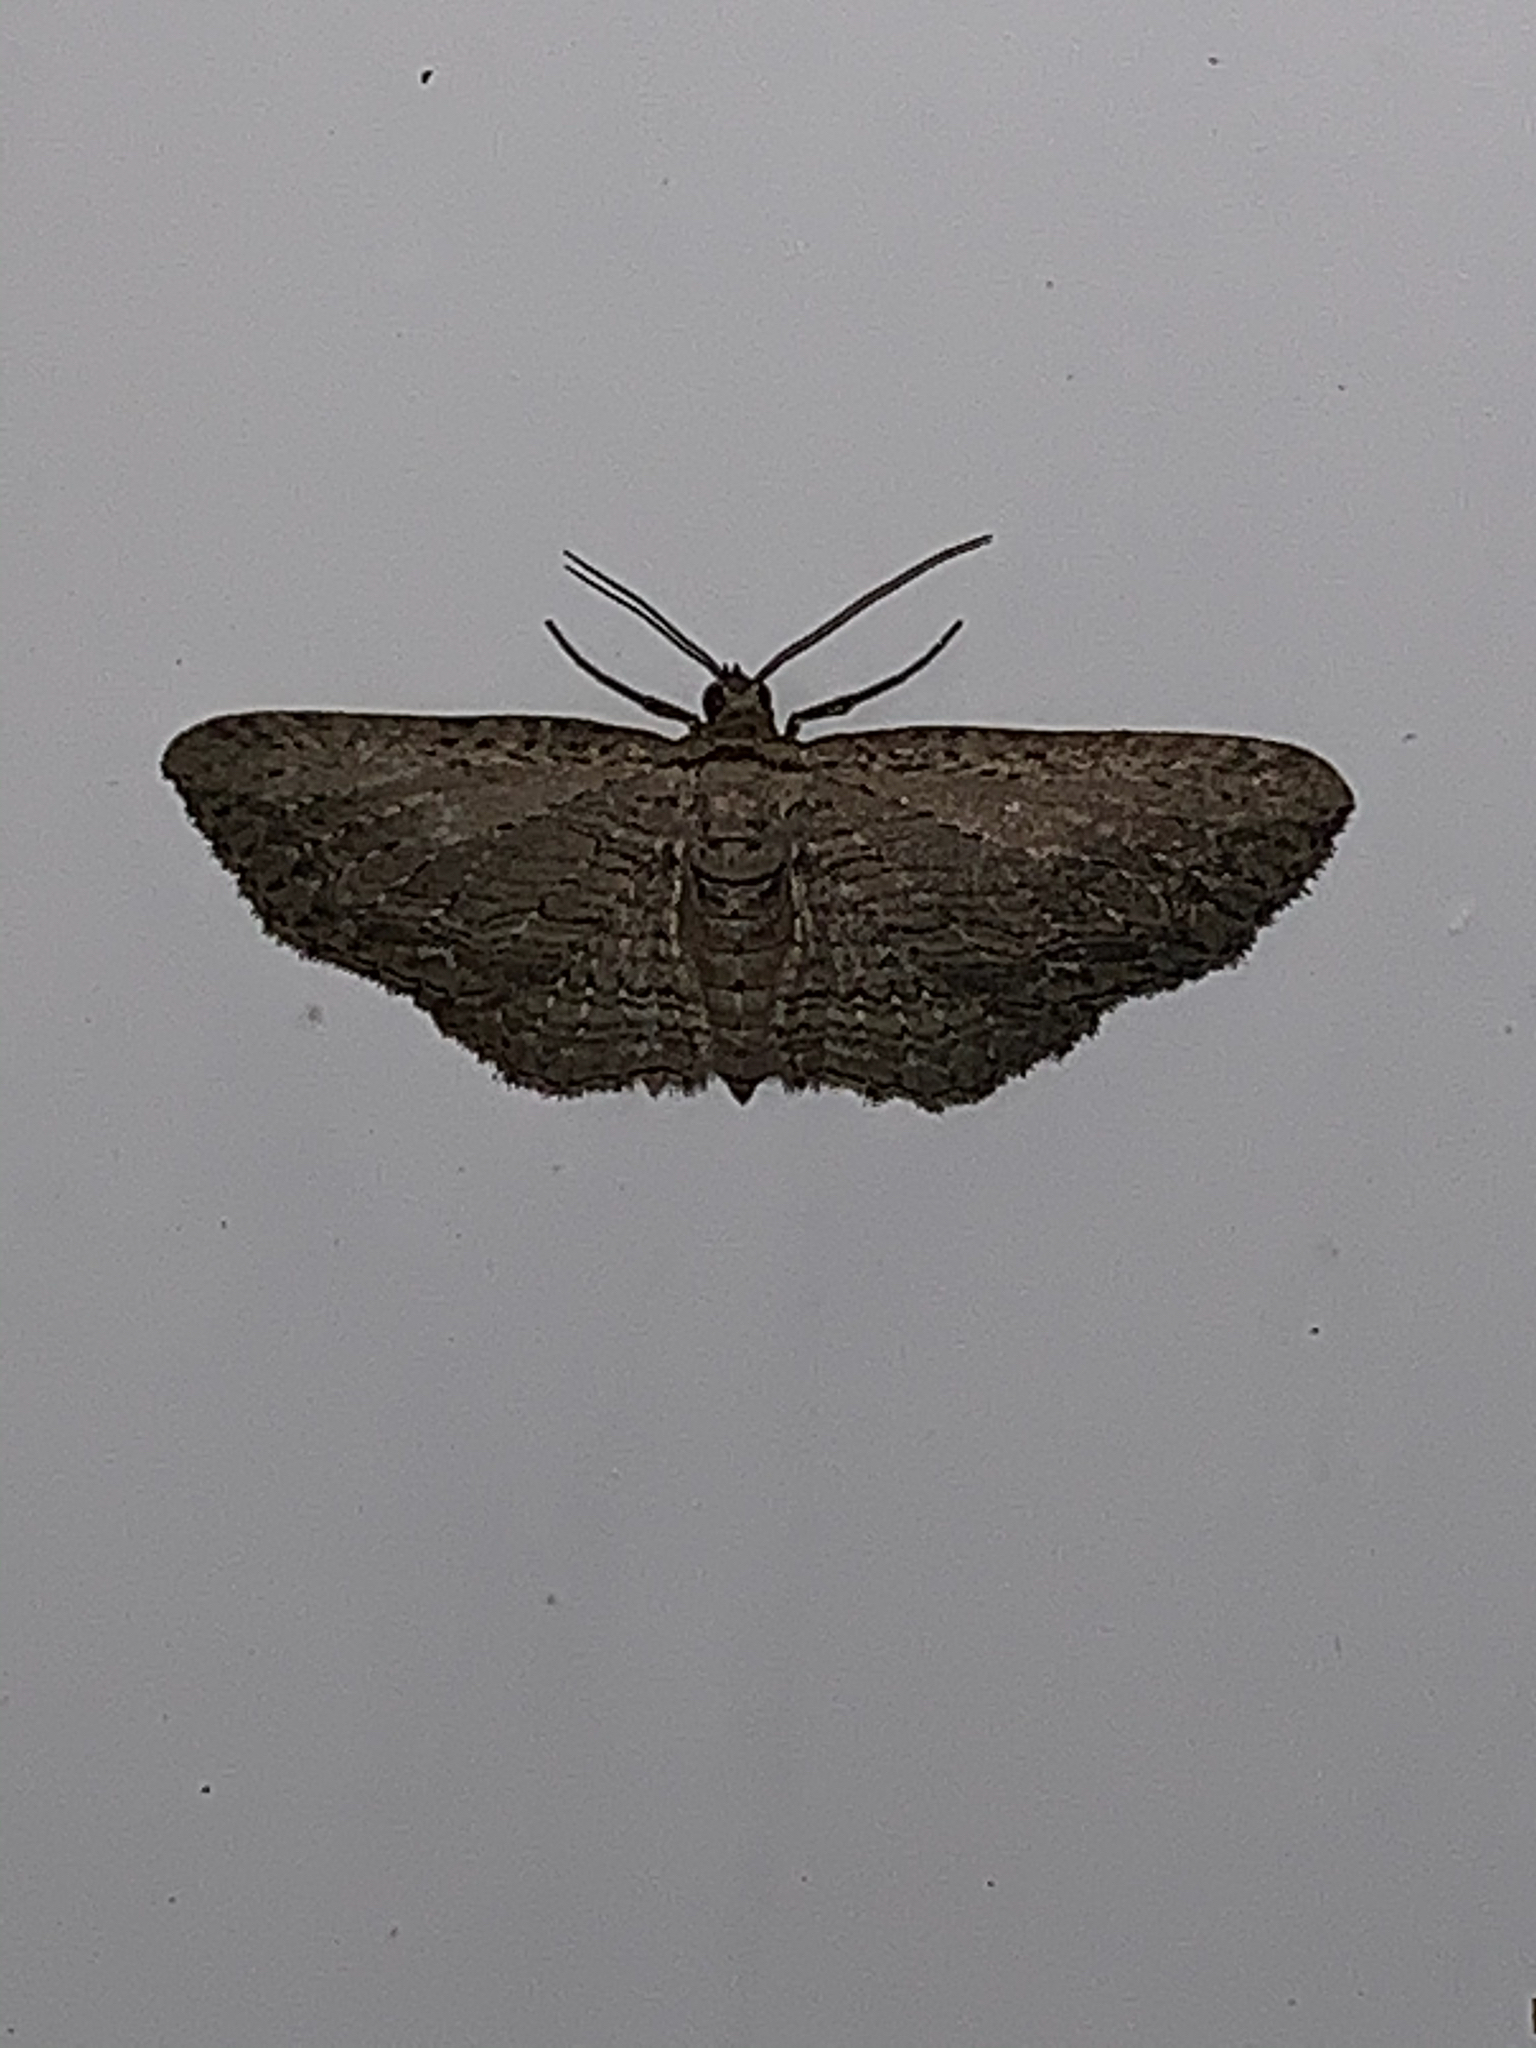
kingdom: Animalia
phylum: Arthropoda
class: Insecta
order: Lepidoptera
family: Geometridae
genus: Horisme
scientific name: Horisme intestinata
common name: Brown bark carpet
